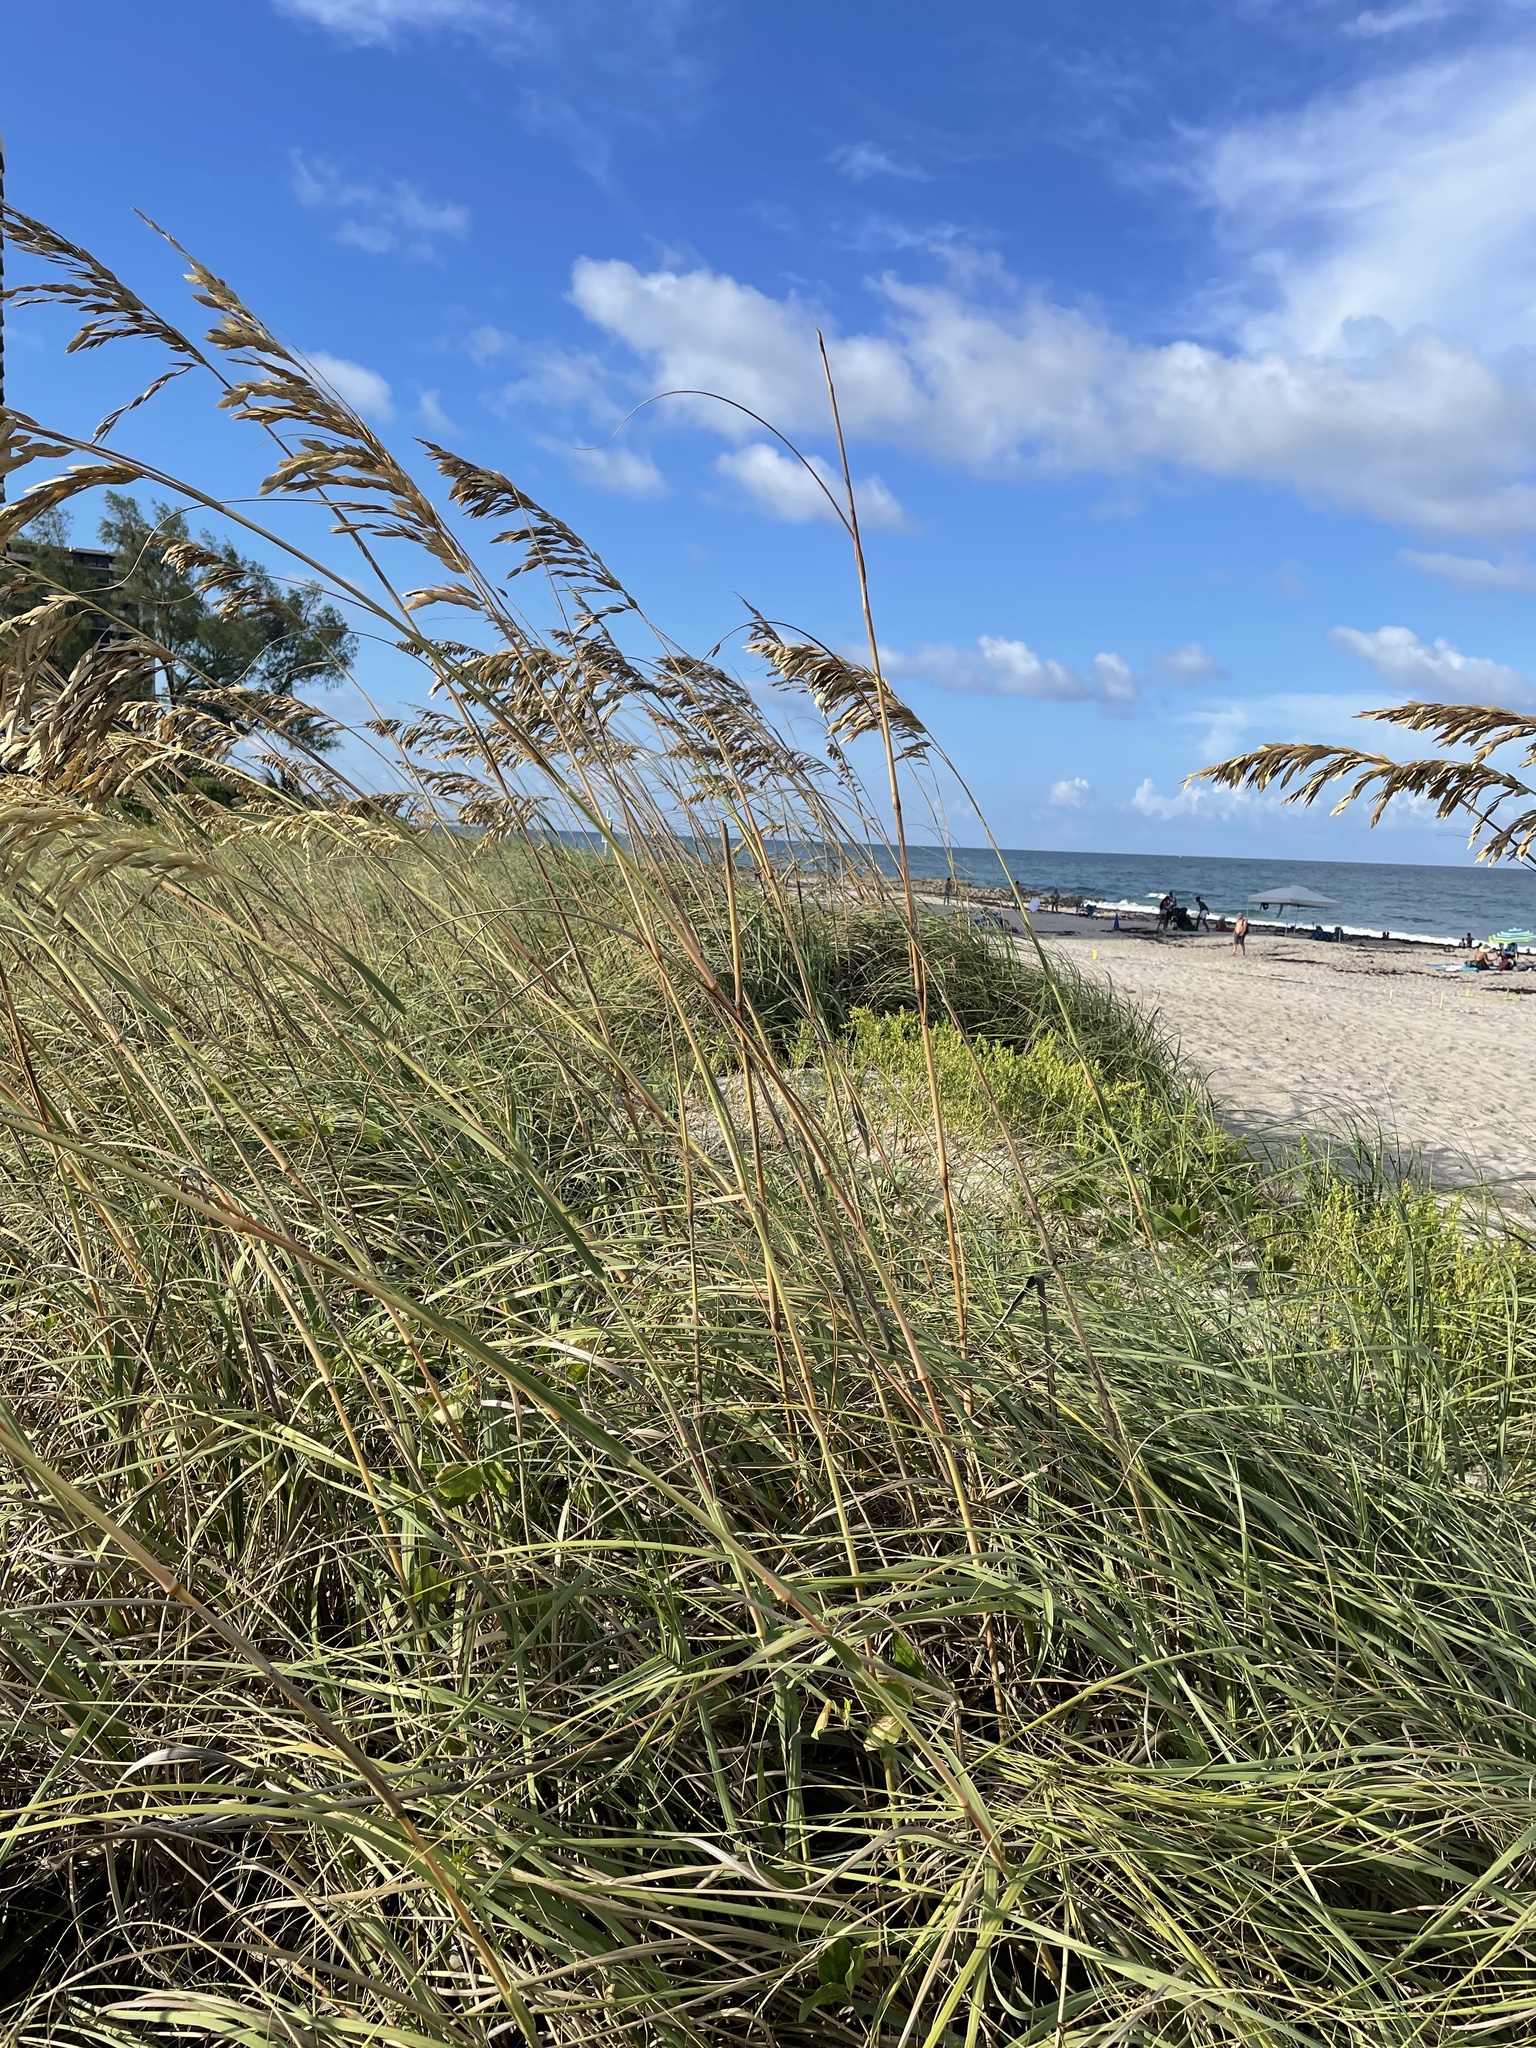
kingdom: Plantae
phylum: Tracheophyta
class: Liliopsida
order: Poales
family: Poaceae
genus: Uniola
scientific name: Uniola paniculata
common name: Seaside-oats
